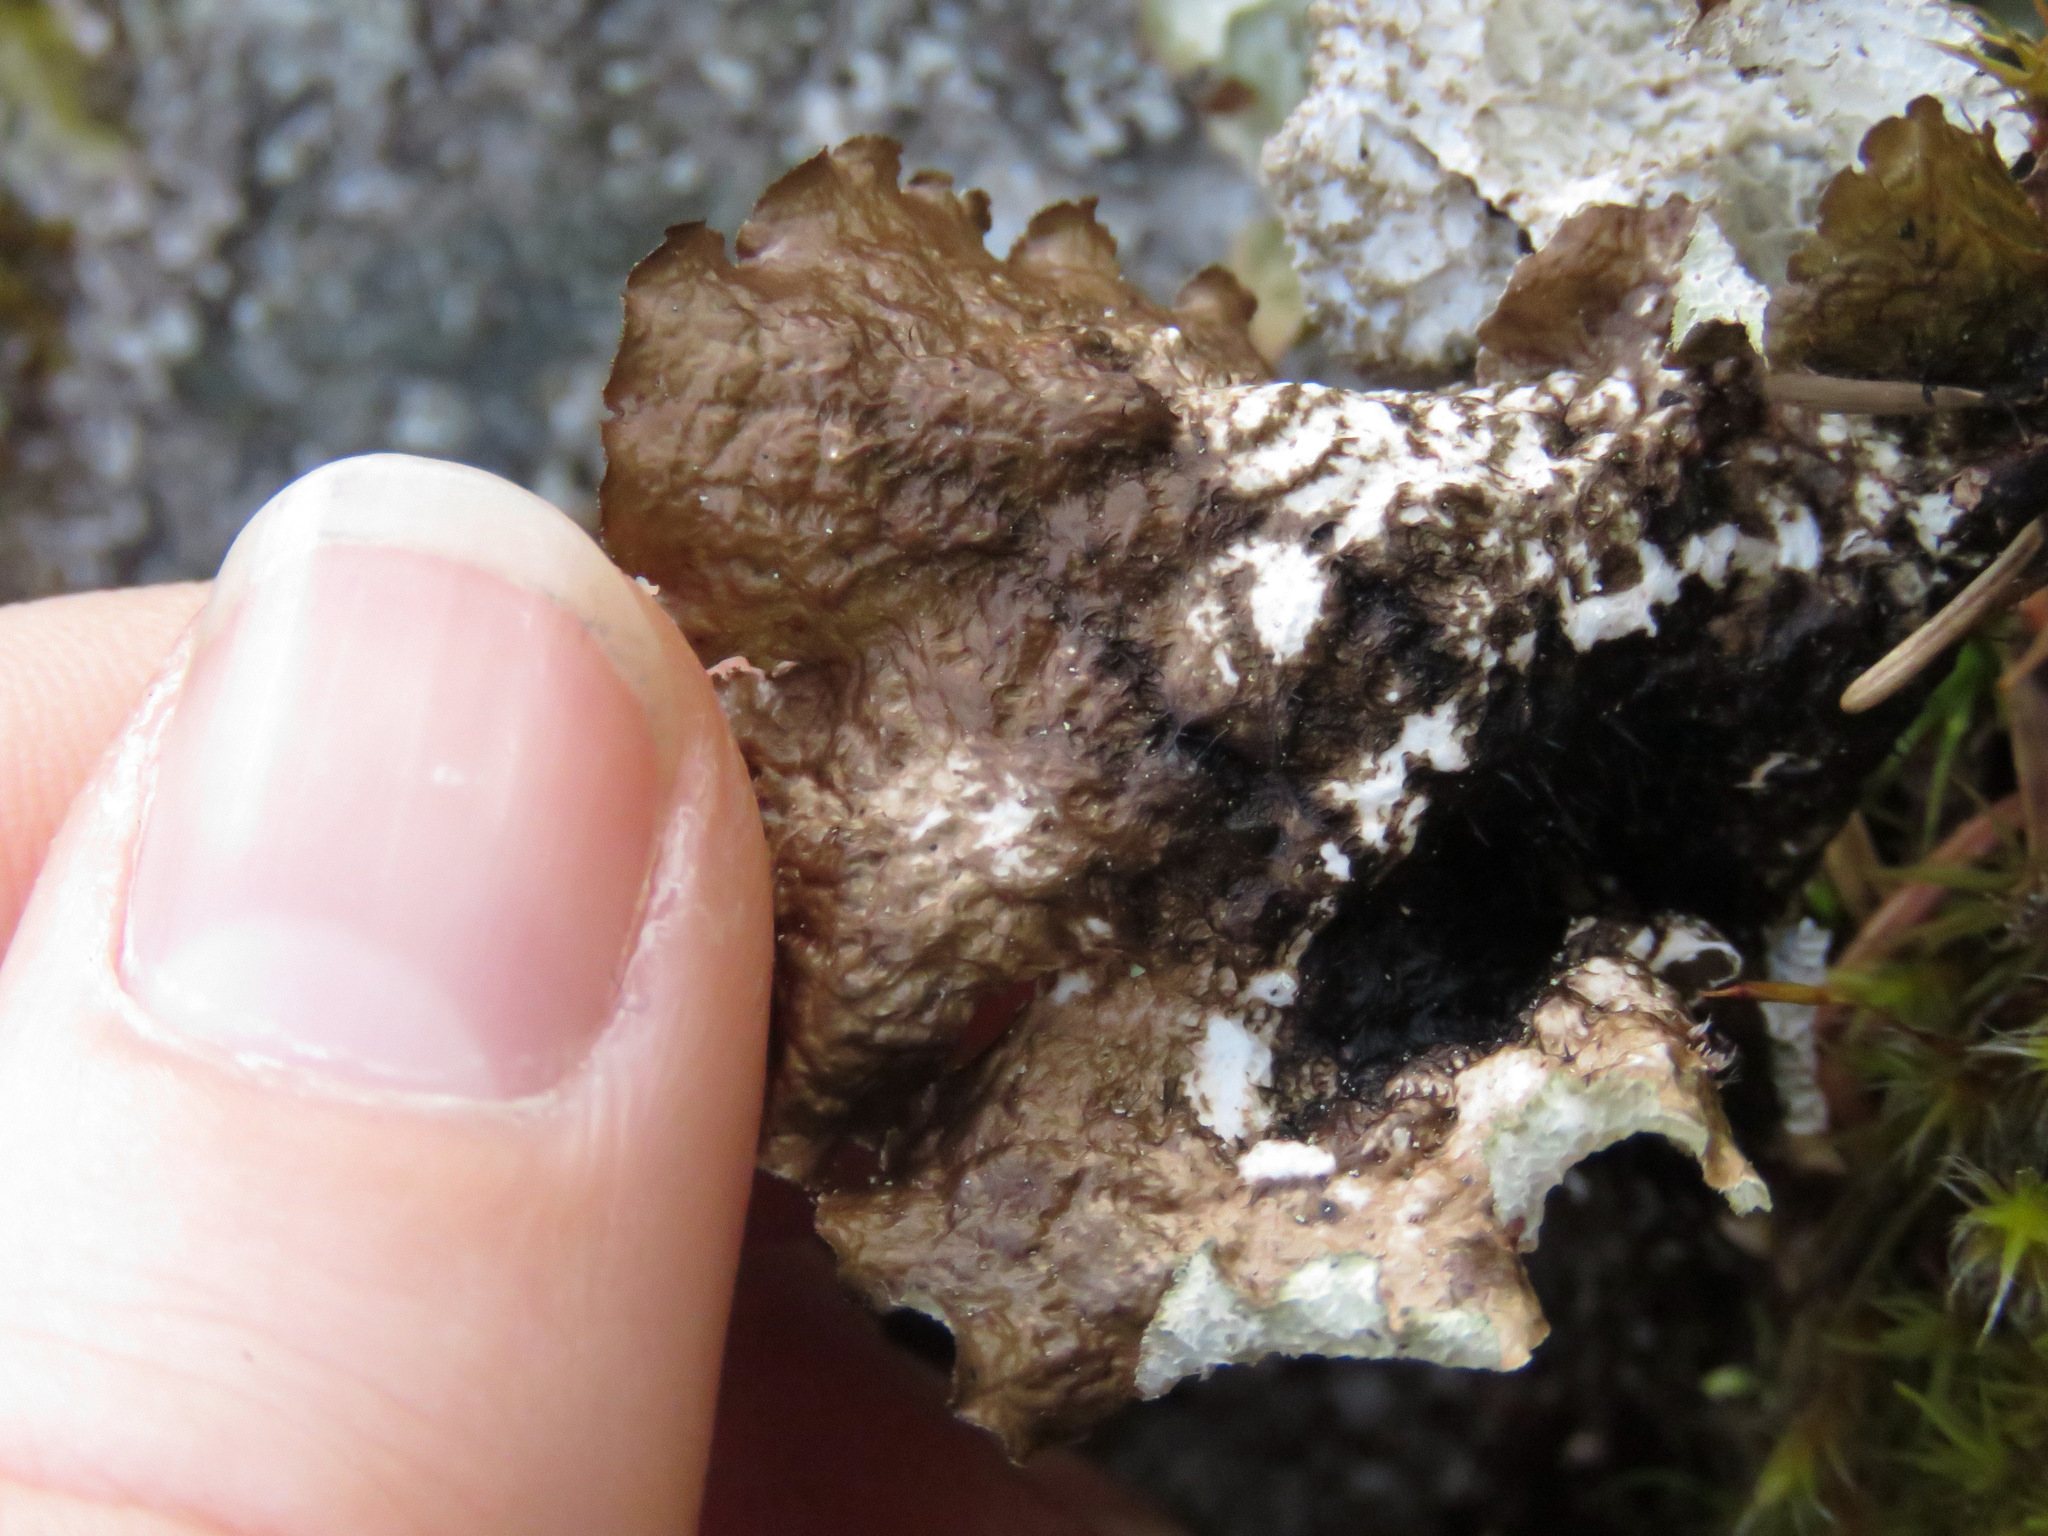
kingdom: Fungi
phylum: Ascomycota
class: Lecanoromycetes
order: Peltigerales
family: Lobariaceae
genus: Lobaria
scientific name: Lobaria oregana
